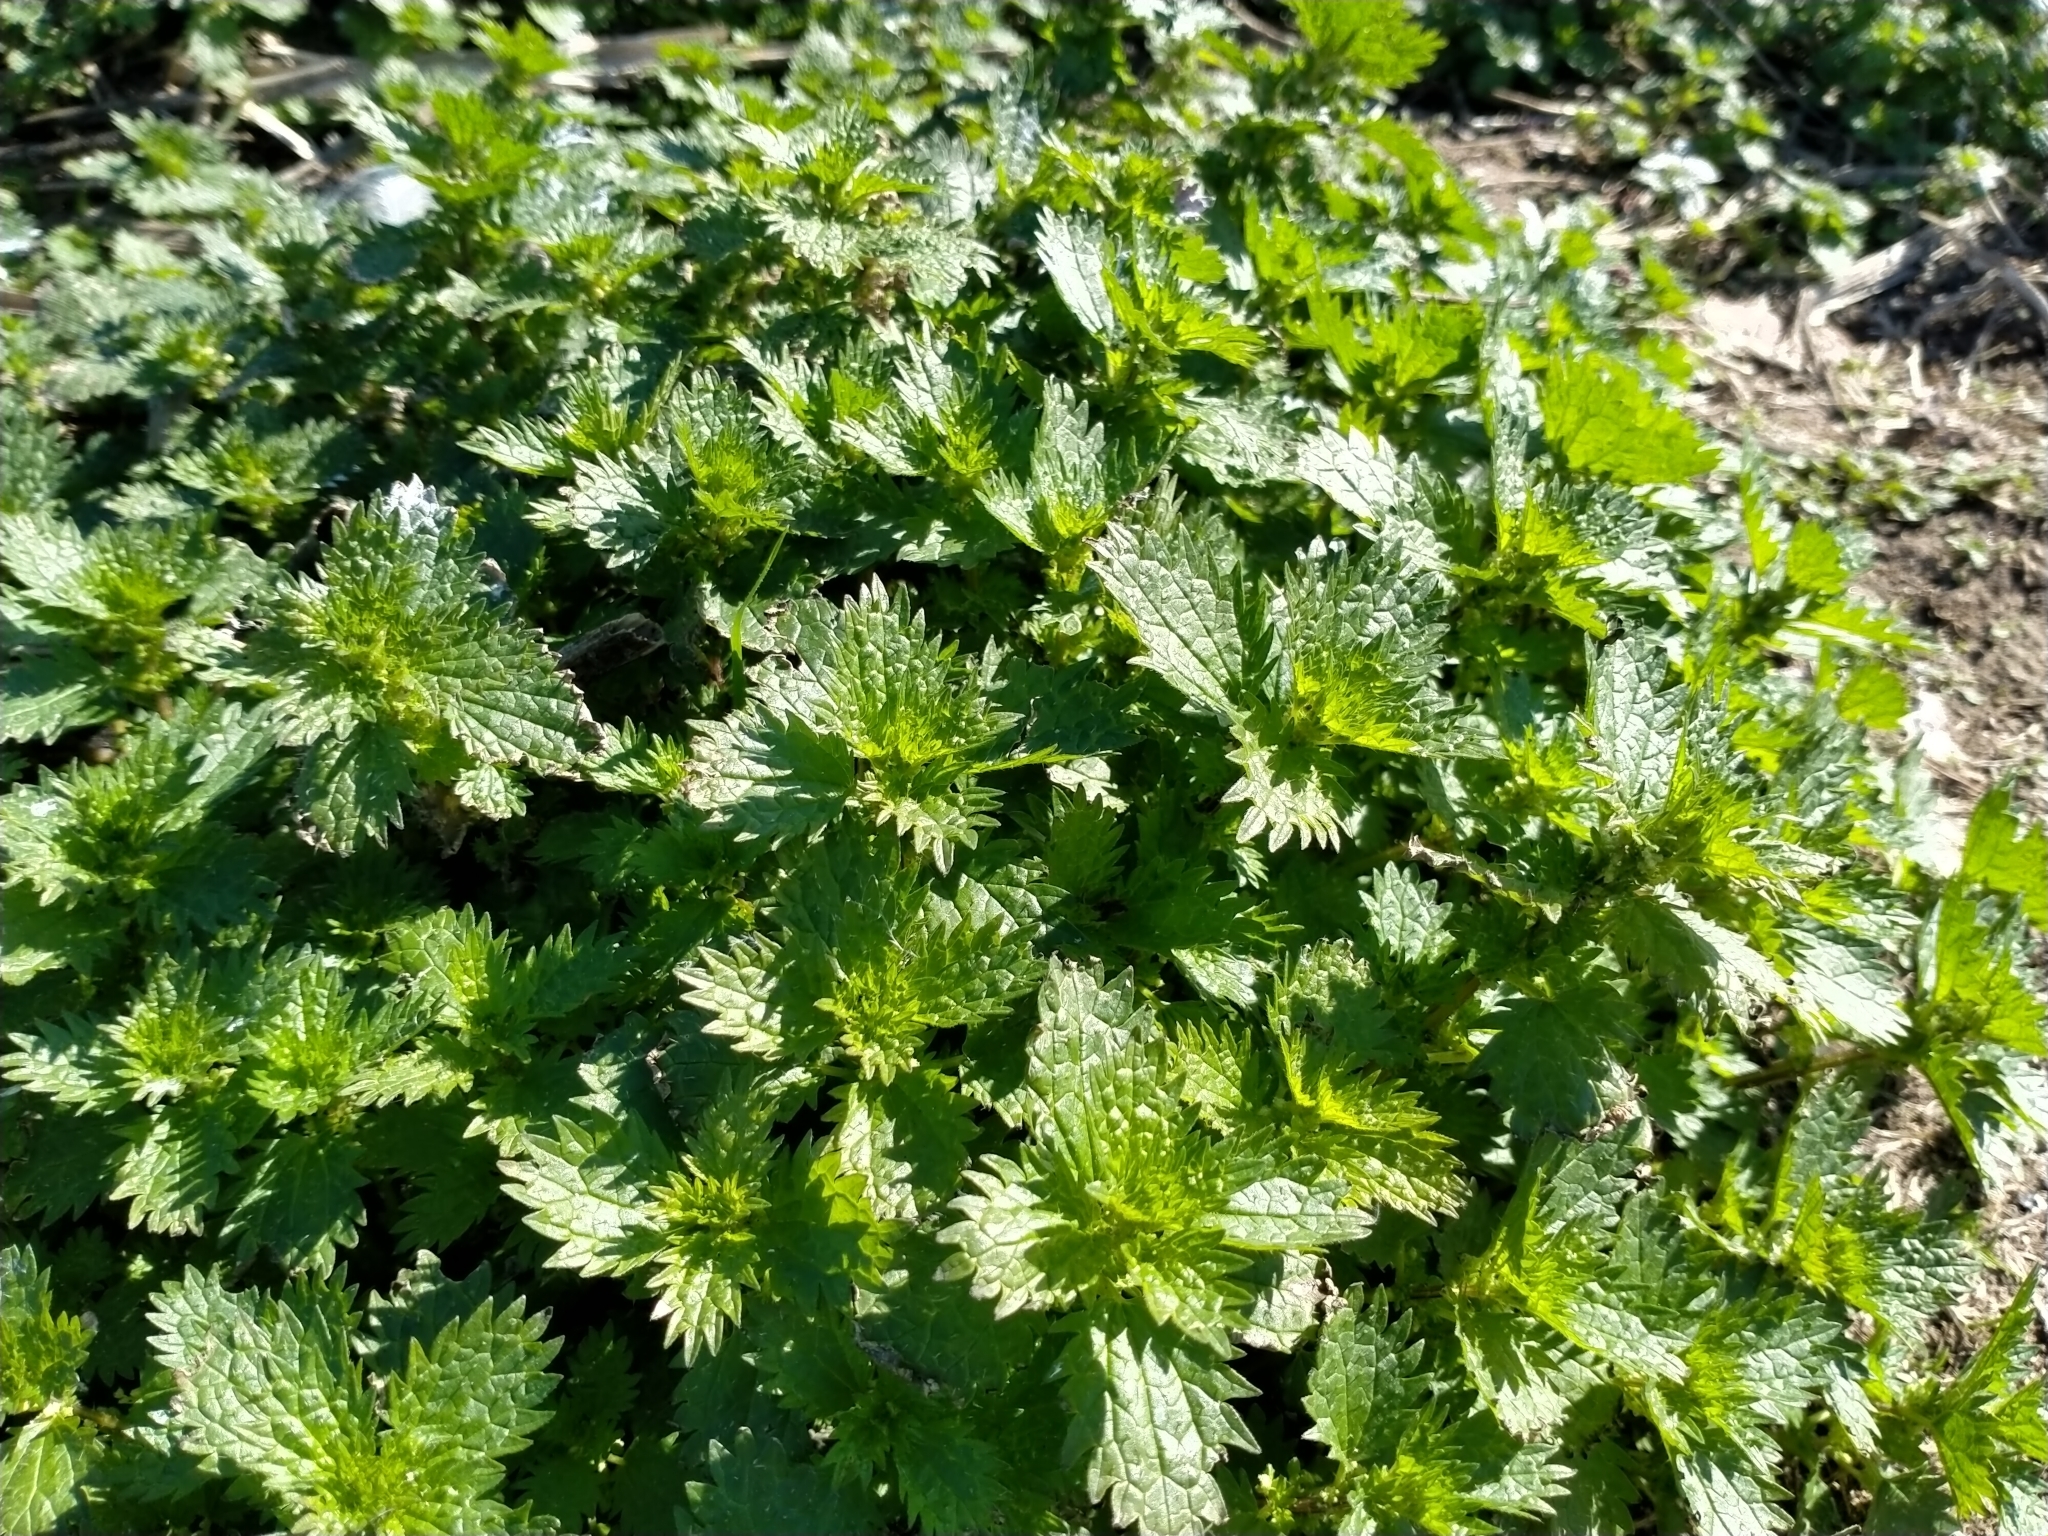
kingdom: Plantae
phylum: Tracheophyta
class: Magnoliopsida
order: Rosales
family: Urticaceae
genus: Urtica
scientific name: Urtica urens
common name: Dwarf nettle
